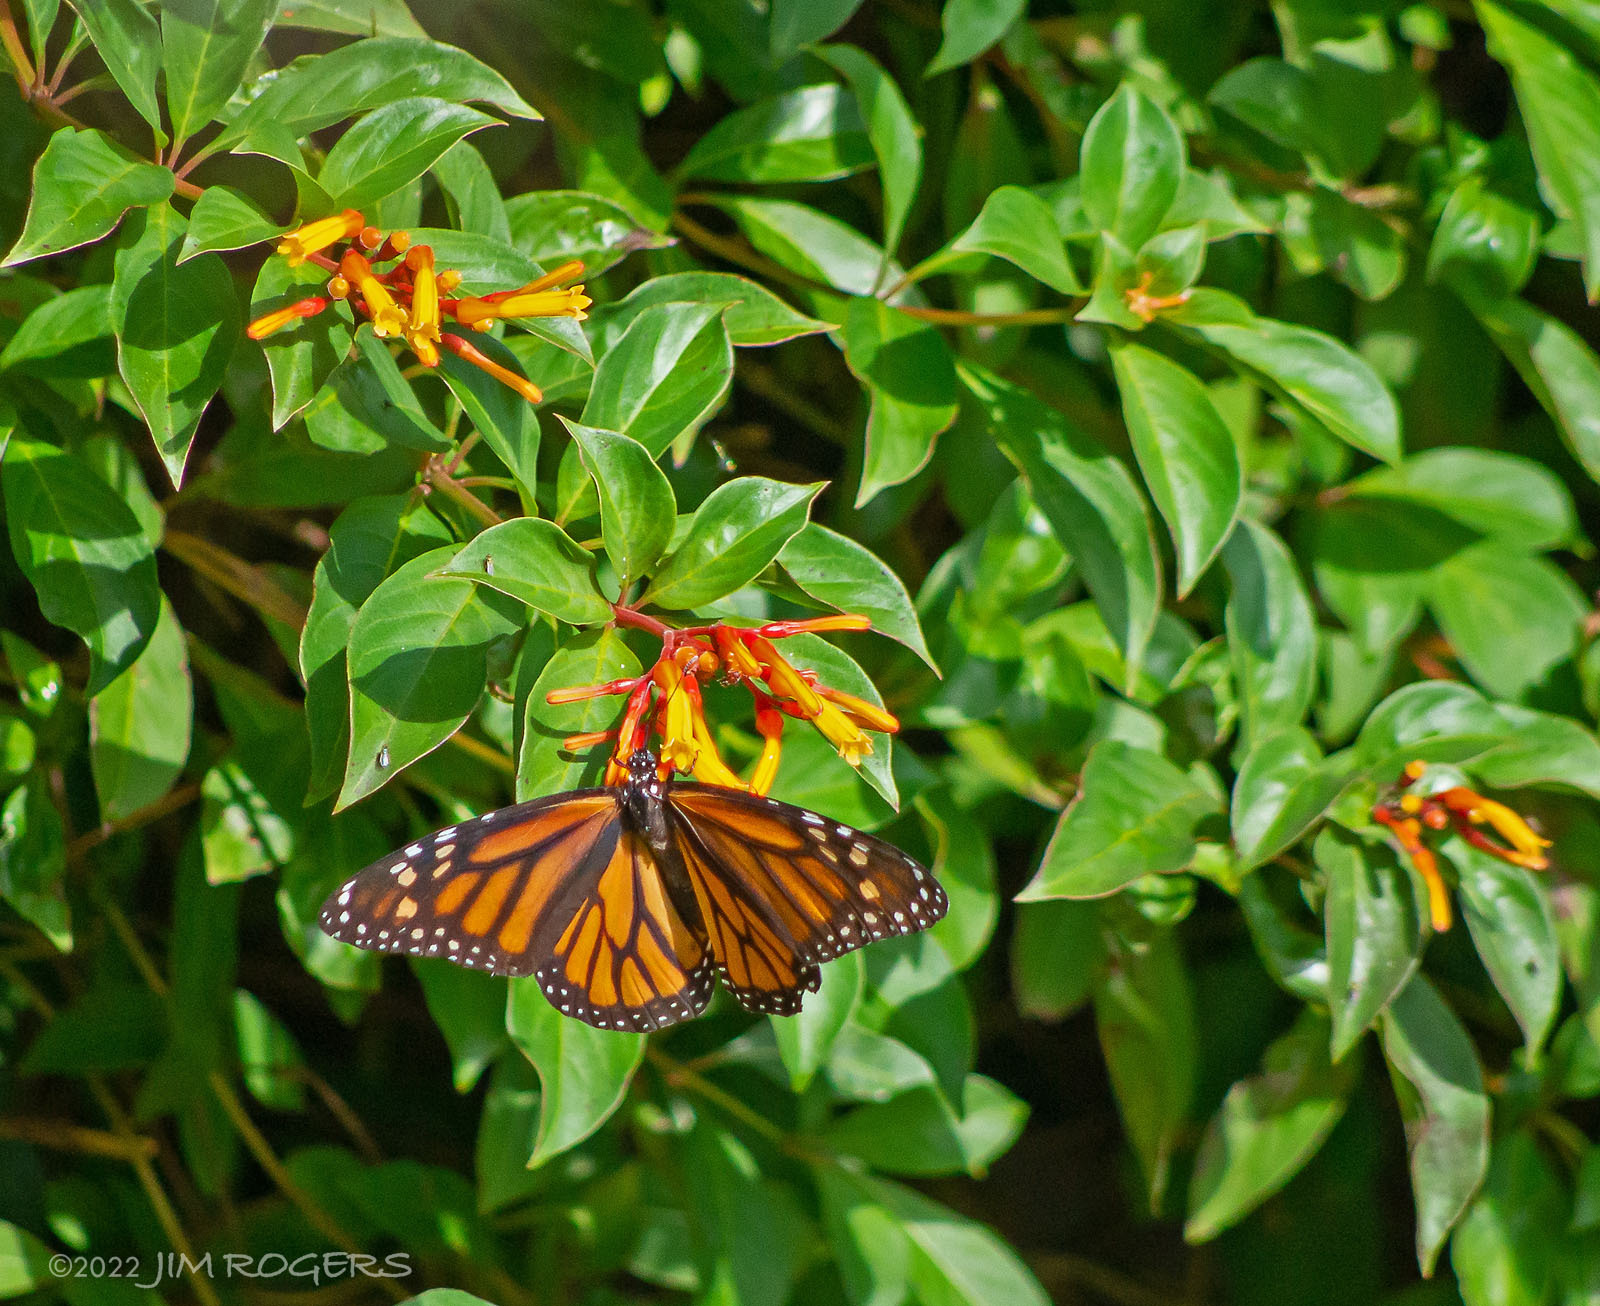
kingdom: Plantae
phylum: Tracheophyta
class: Magnoliopsida
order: Gentianales
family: Rubiaceae
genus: Hamelia
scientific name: Hamelia patens
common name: Redhead
